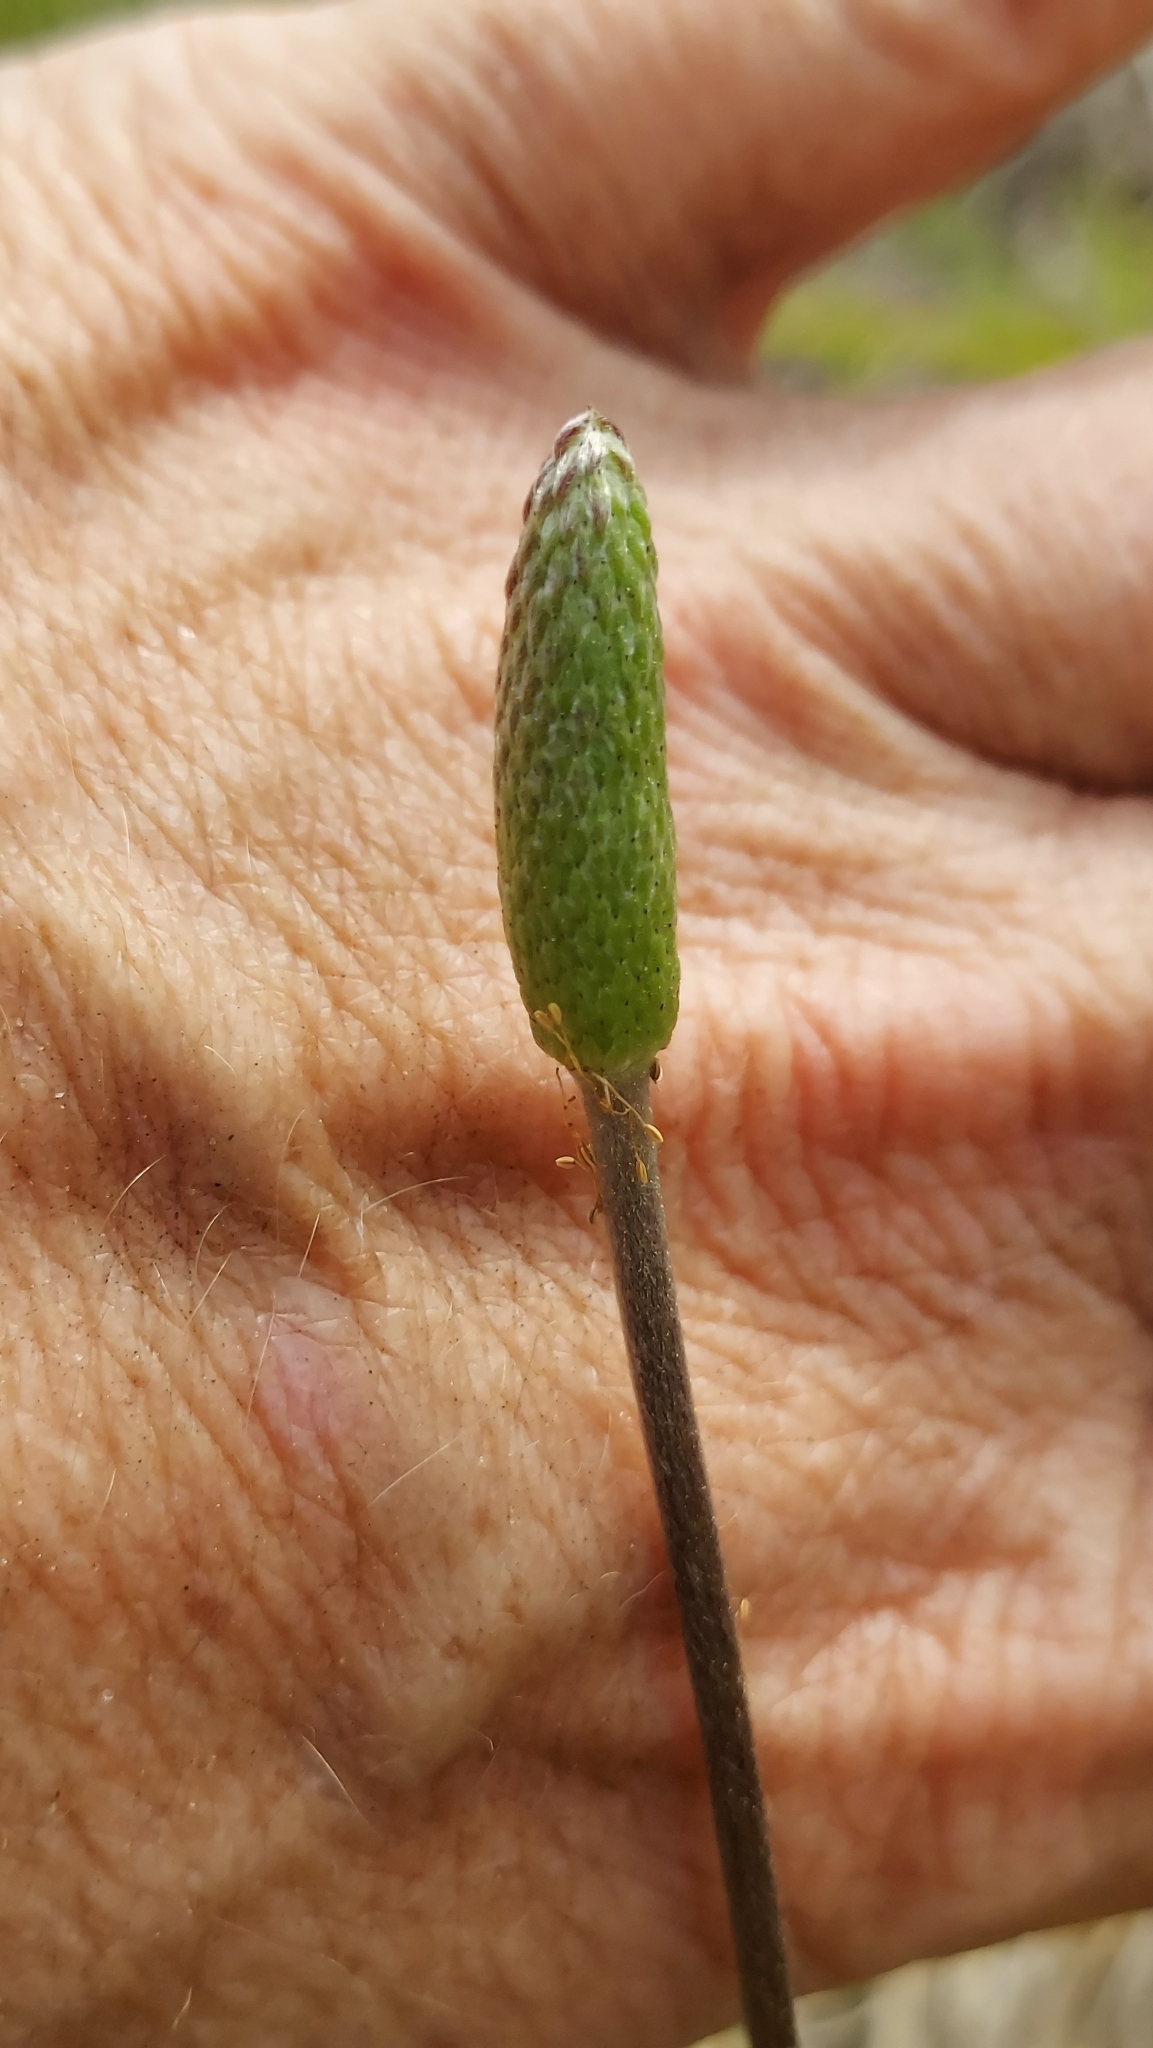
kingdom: Plantae
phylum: Tracheophyta
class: Magnoliopsida
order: Ranunculales
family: Ranunculaceae
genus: Anemone
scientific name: Anemone berlandieri
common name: Ten-petal anemone
